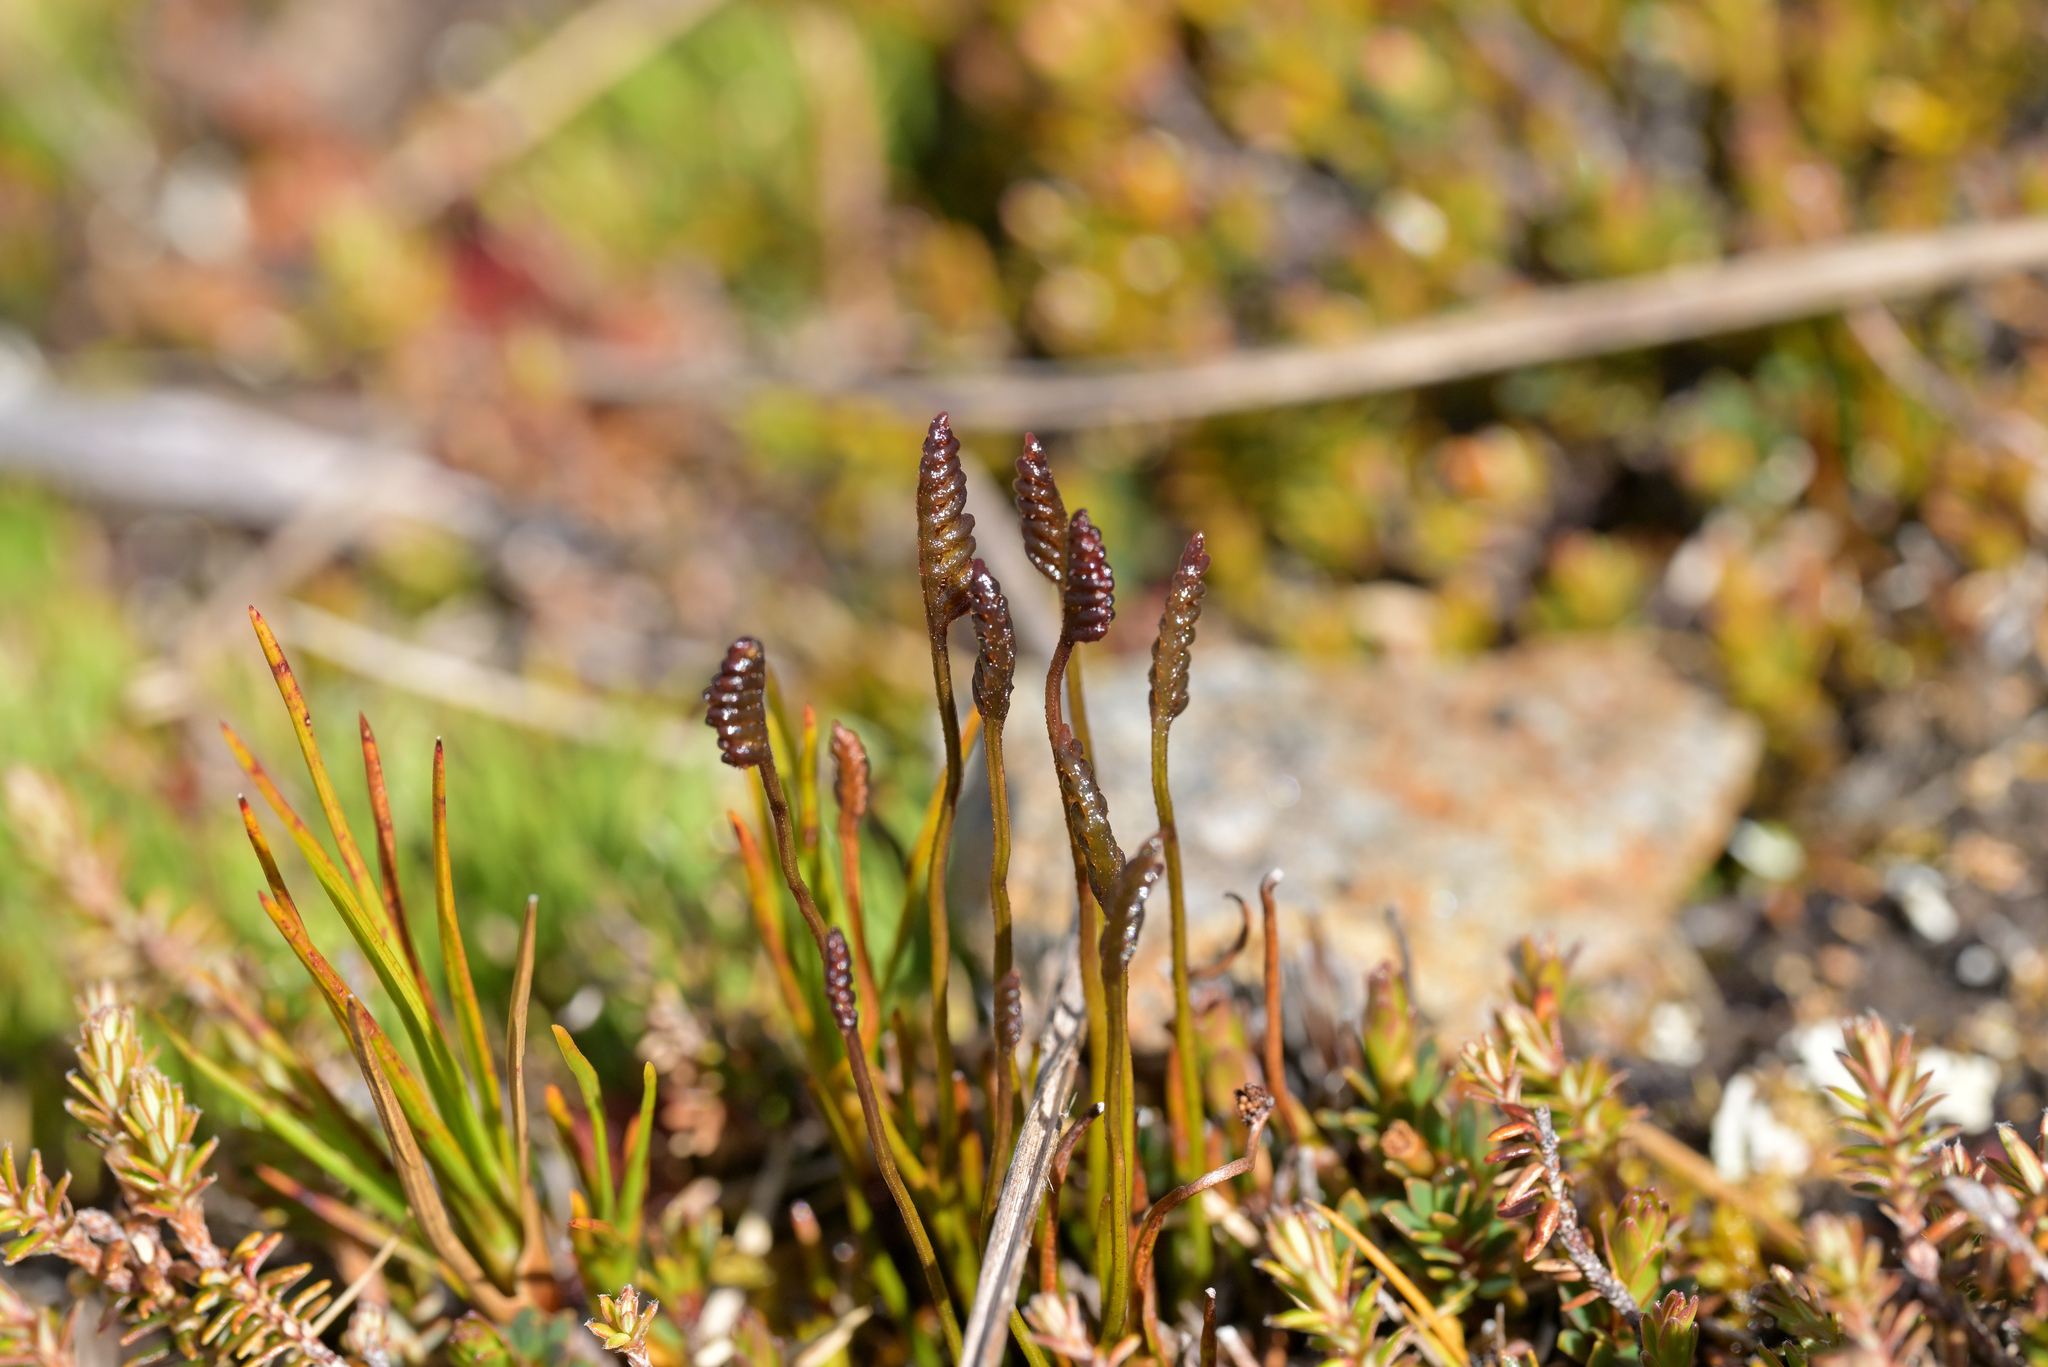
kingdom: Plantae
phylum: Tracheophyta
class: Polypodiopsida
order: Schizaeales
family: Schizaeaceae
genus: Microschizaea
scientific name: Microschizaea australis
